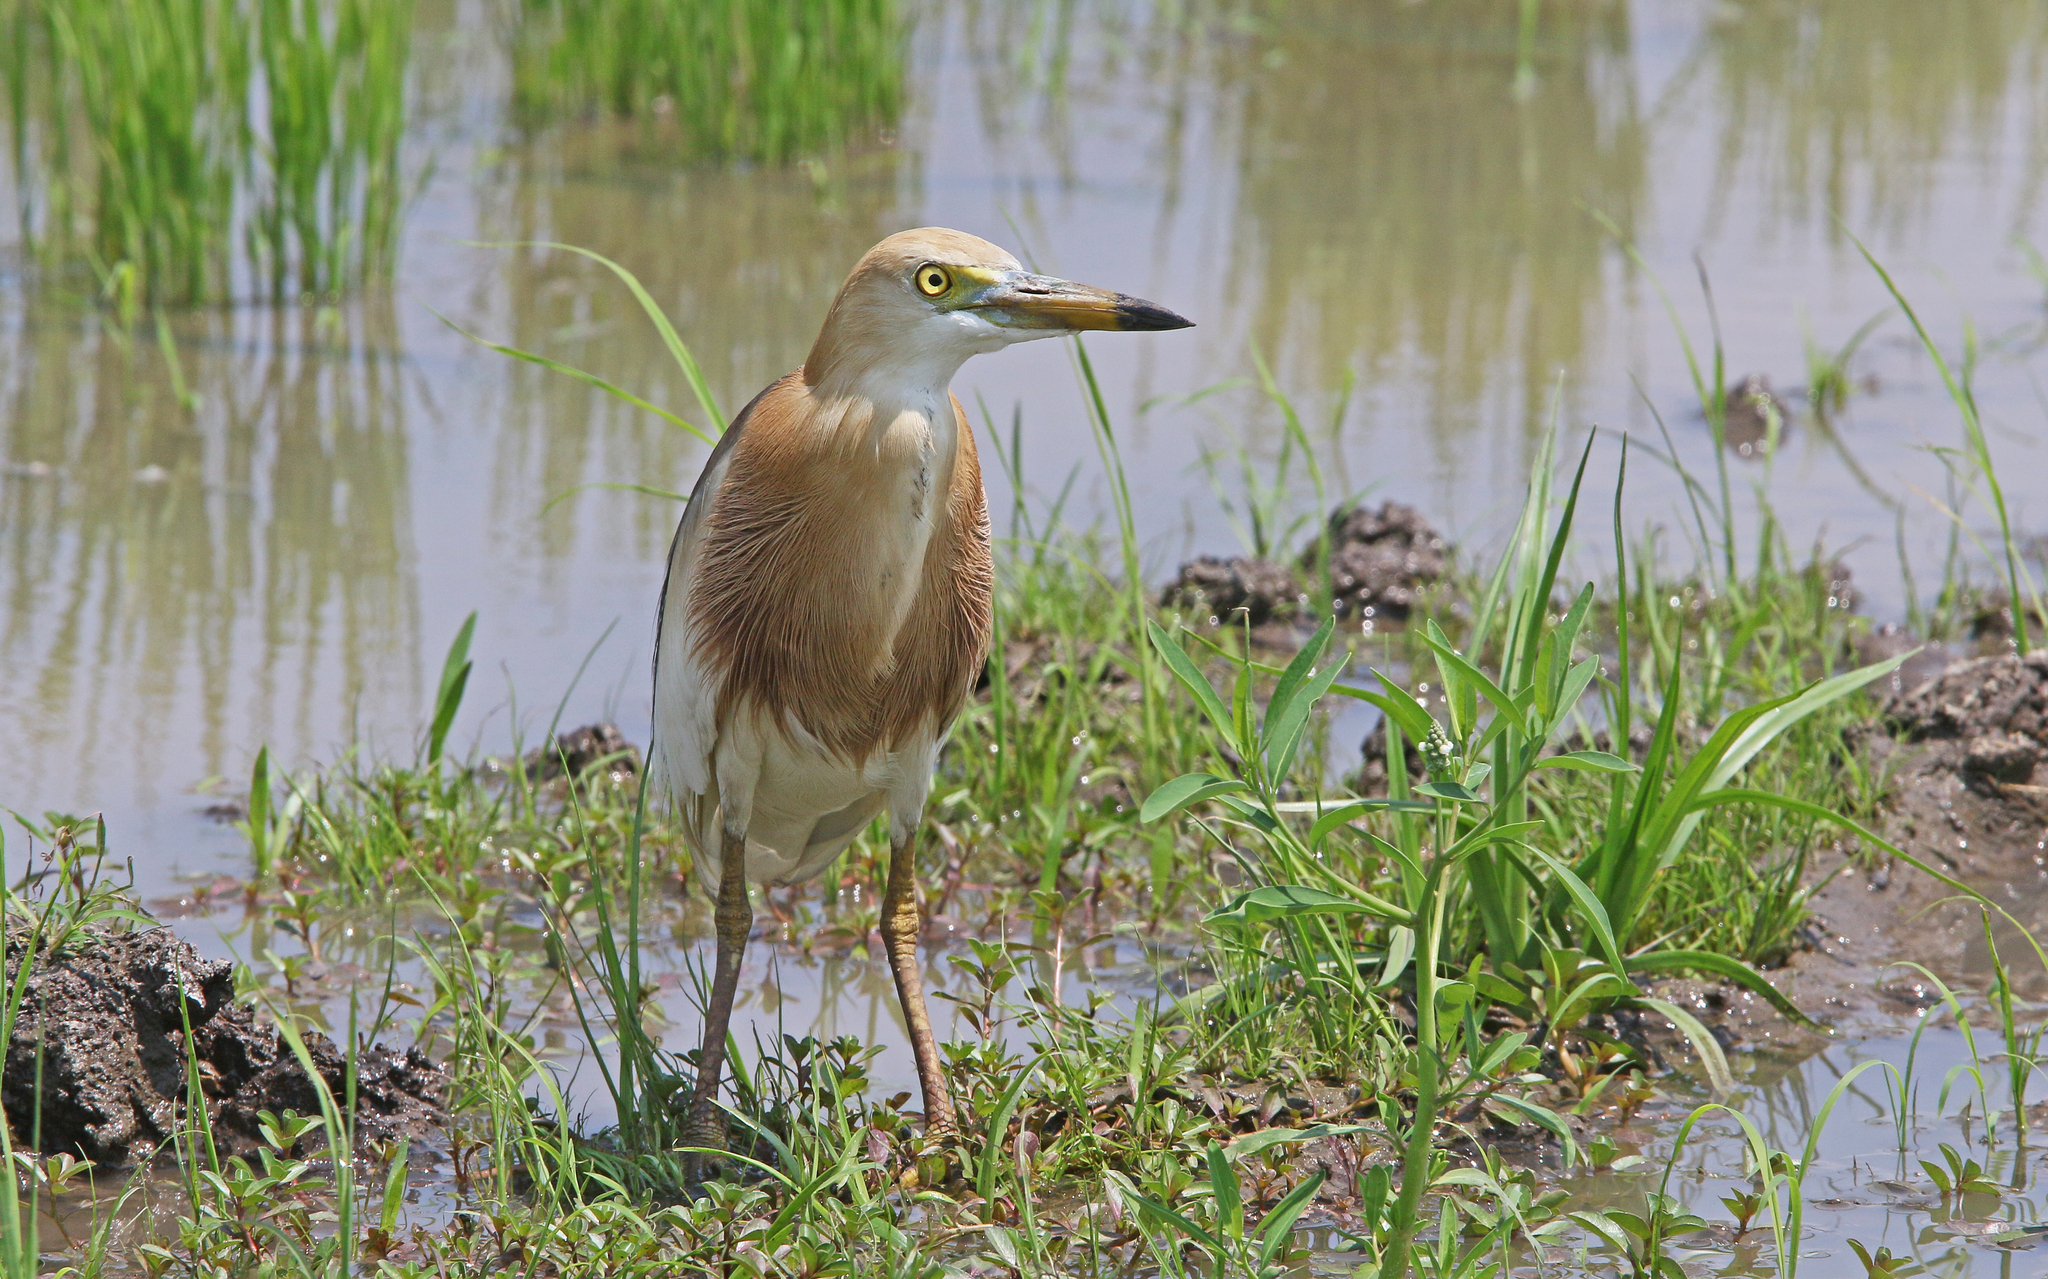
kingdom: Animalia
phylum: Chordata
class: Aves
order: Pelecaniformes
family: Ardeidae
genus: Ardeola
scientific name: Ardeola speciosa
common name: Javan pond heron
